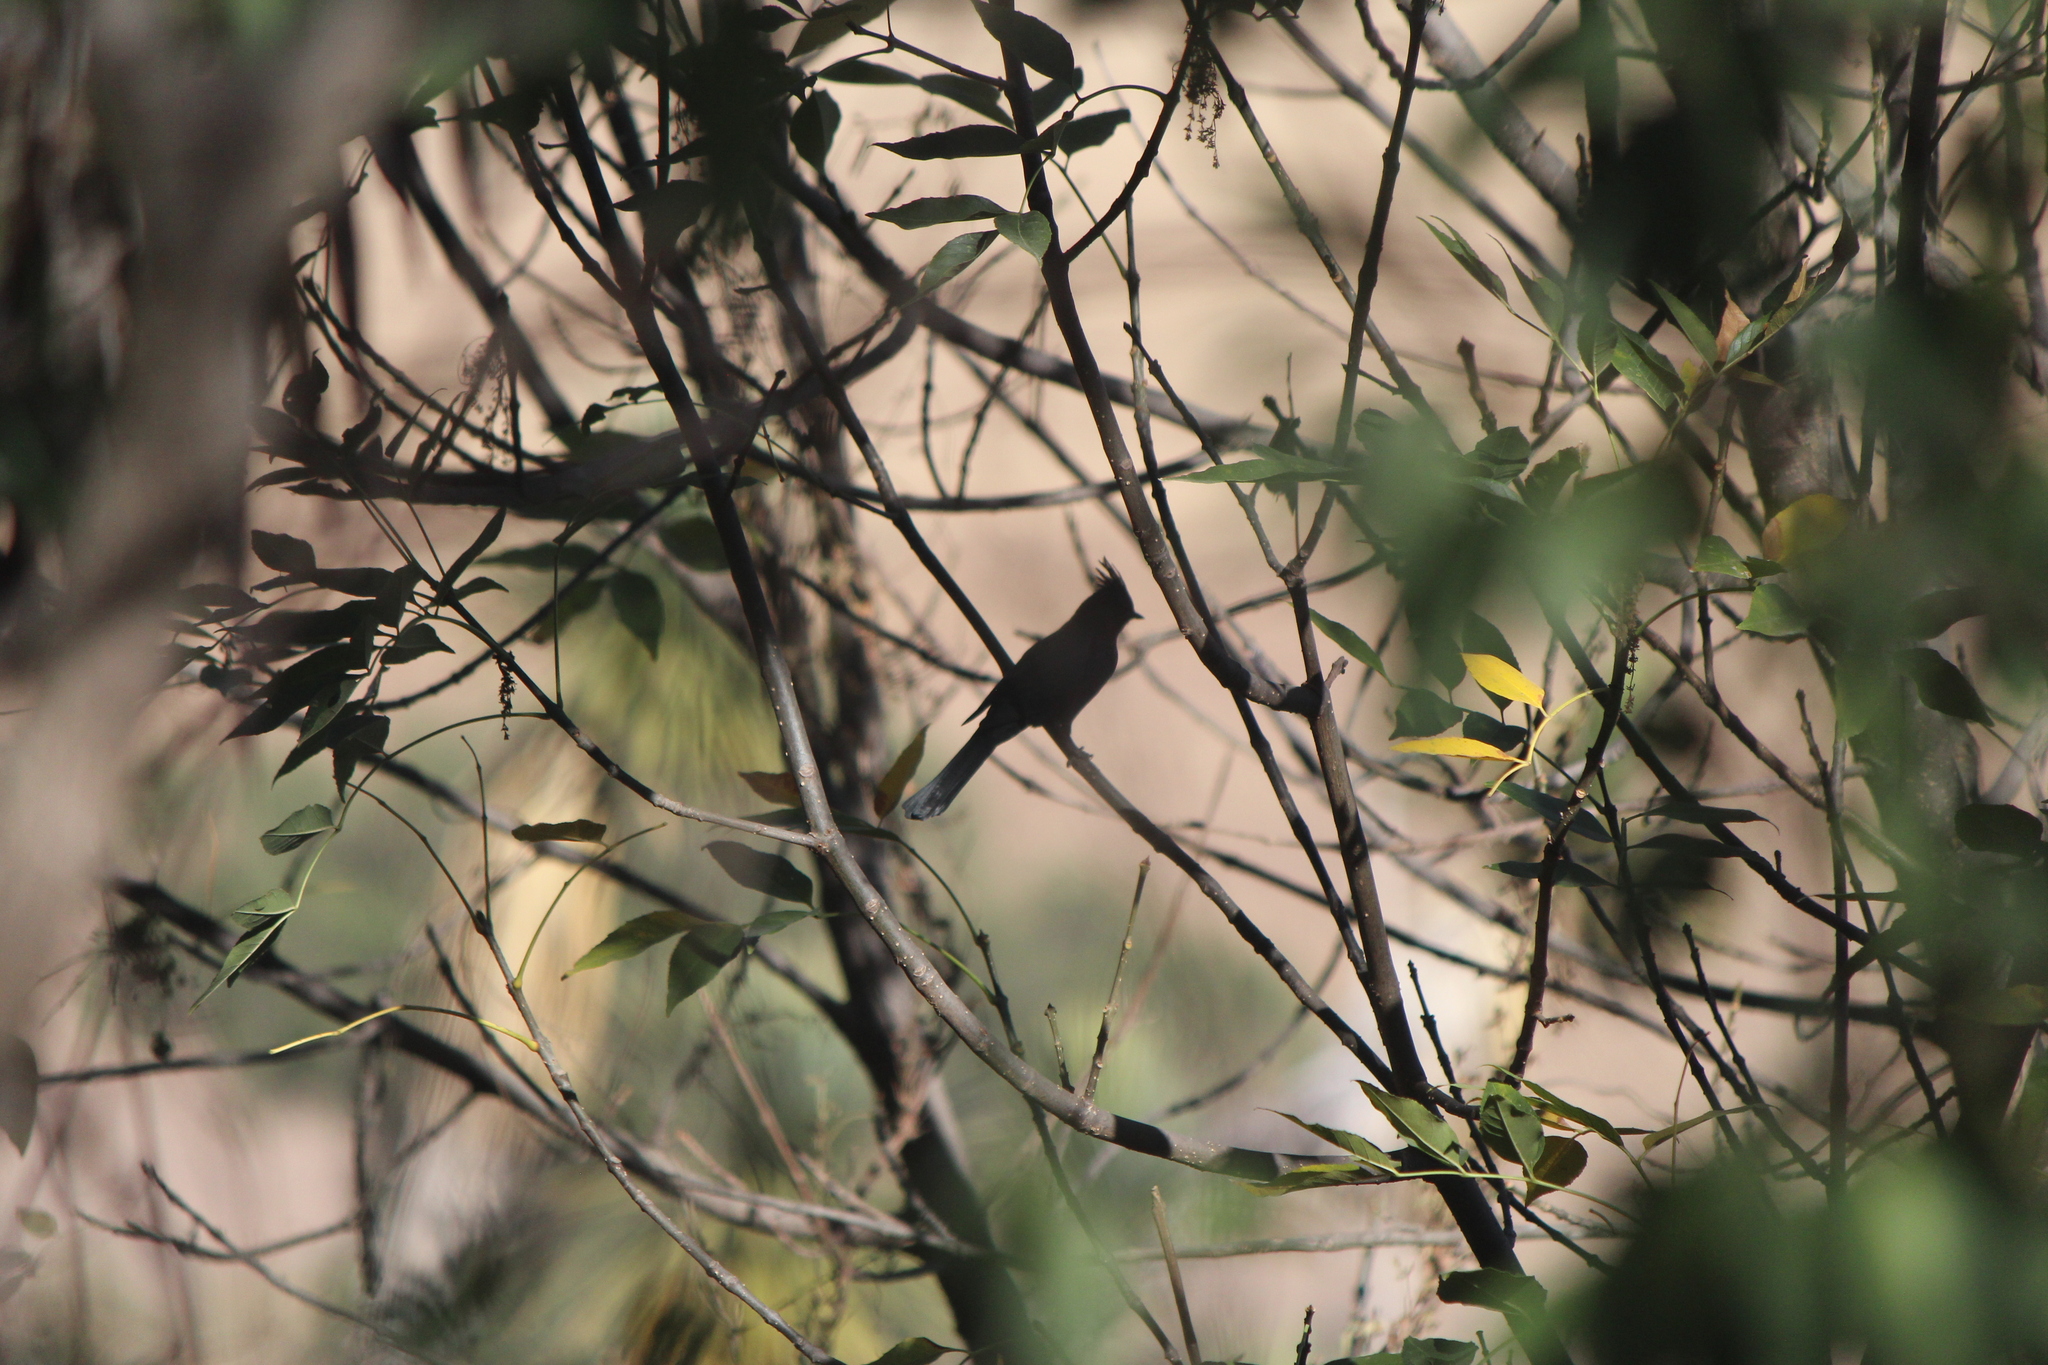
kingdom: Animalia
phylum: Chordata
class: Aves
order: Passeriformes
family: Ptilogonatidae
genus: Phainopepla
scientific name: Phainopepla nitens
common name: Phainopepla
